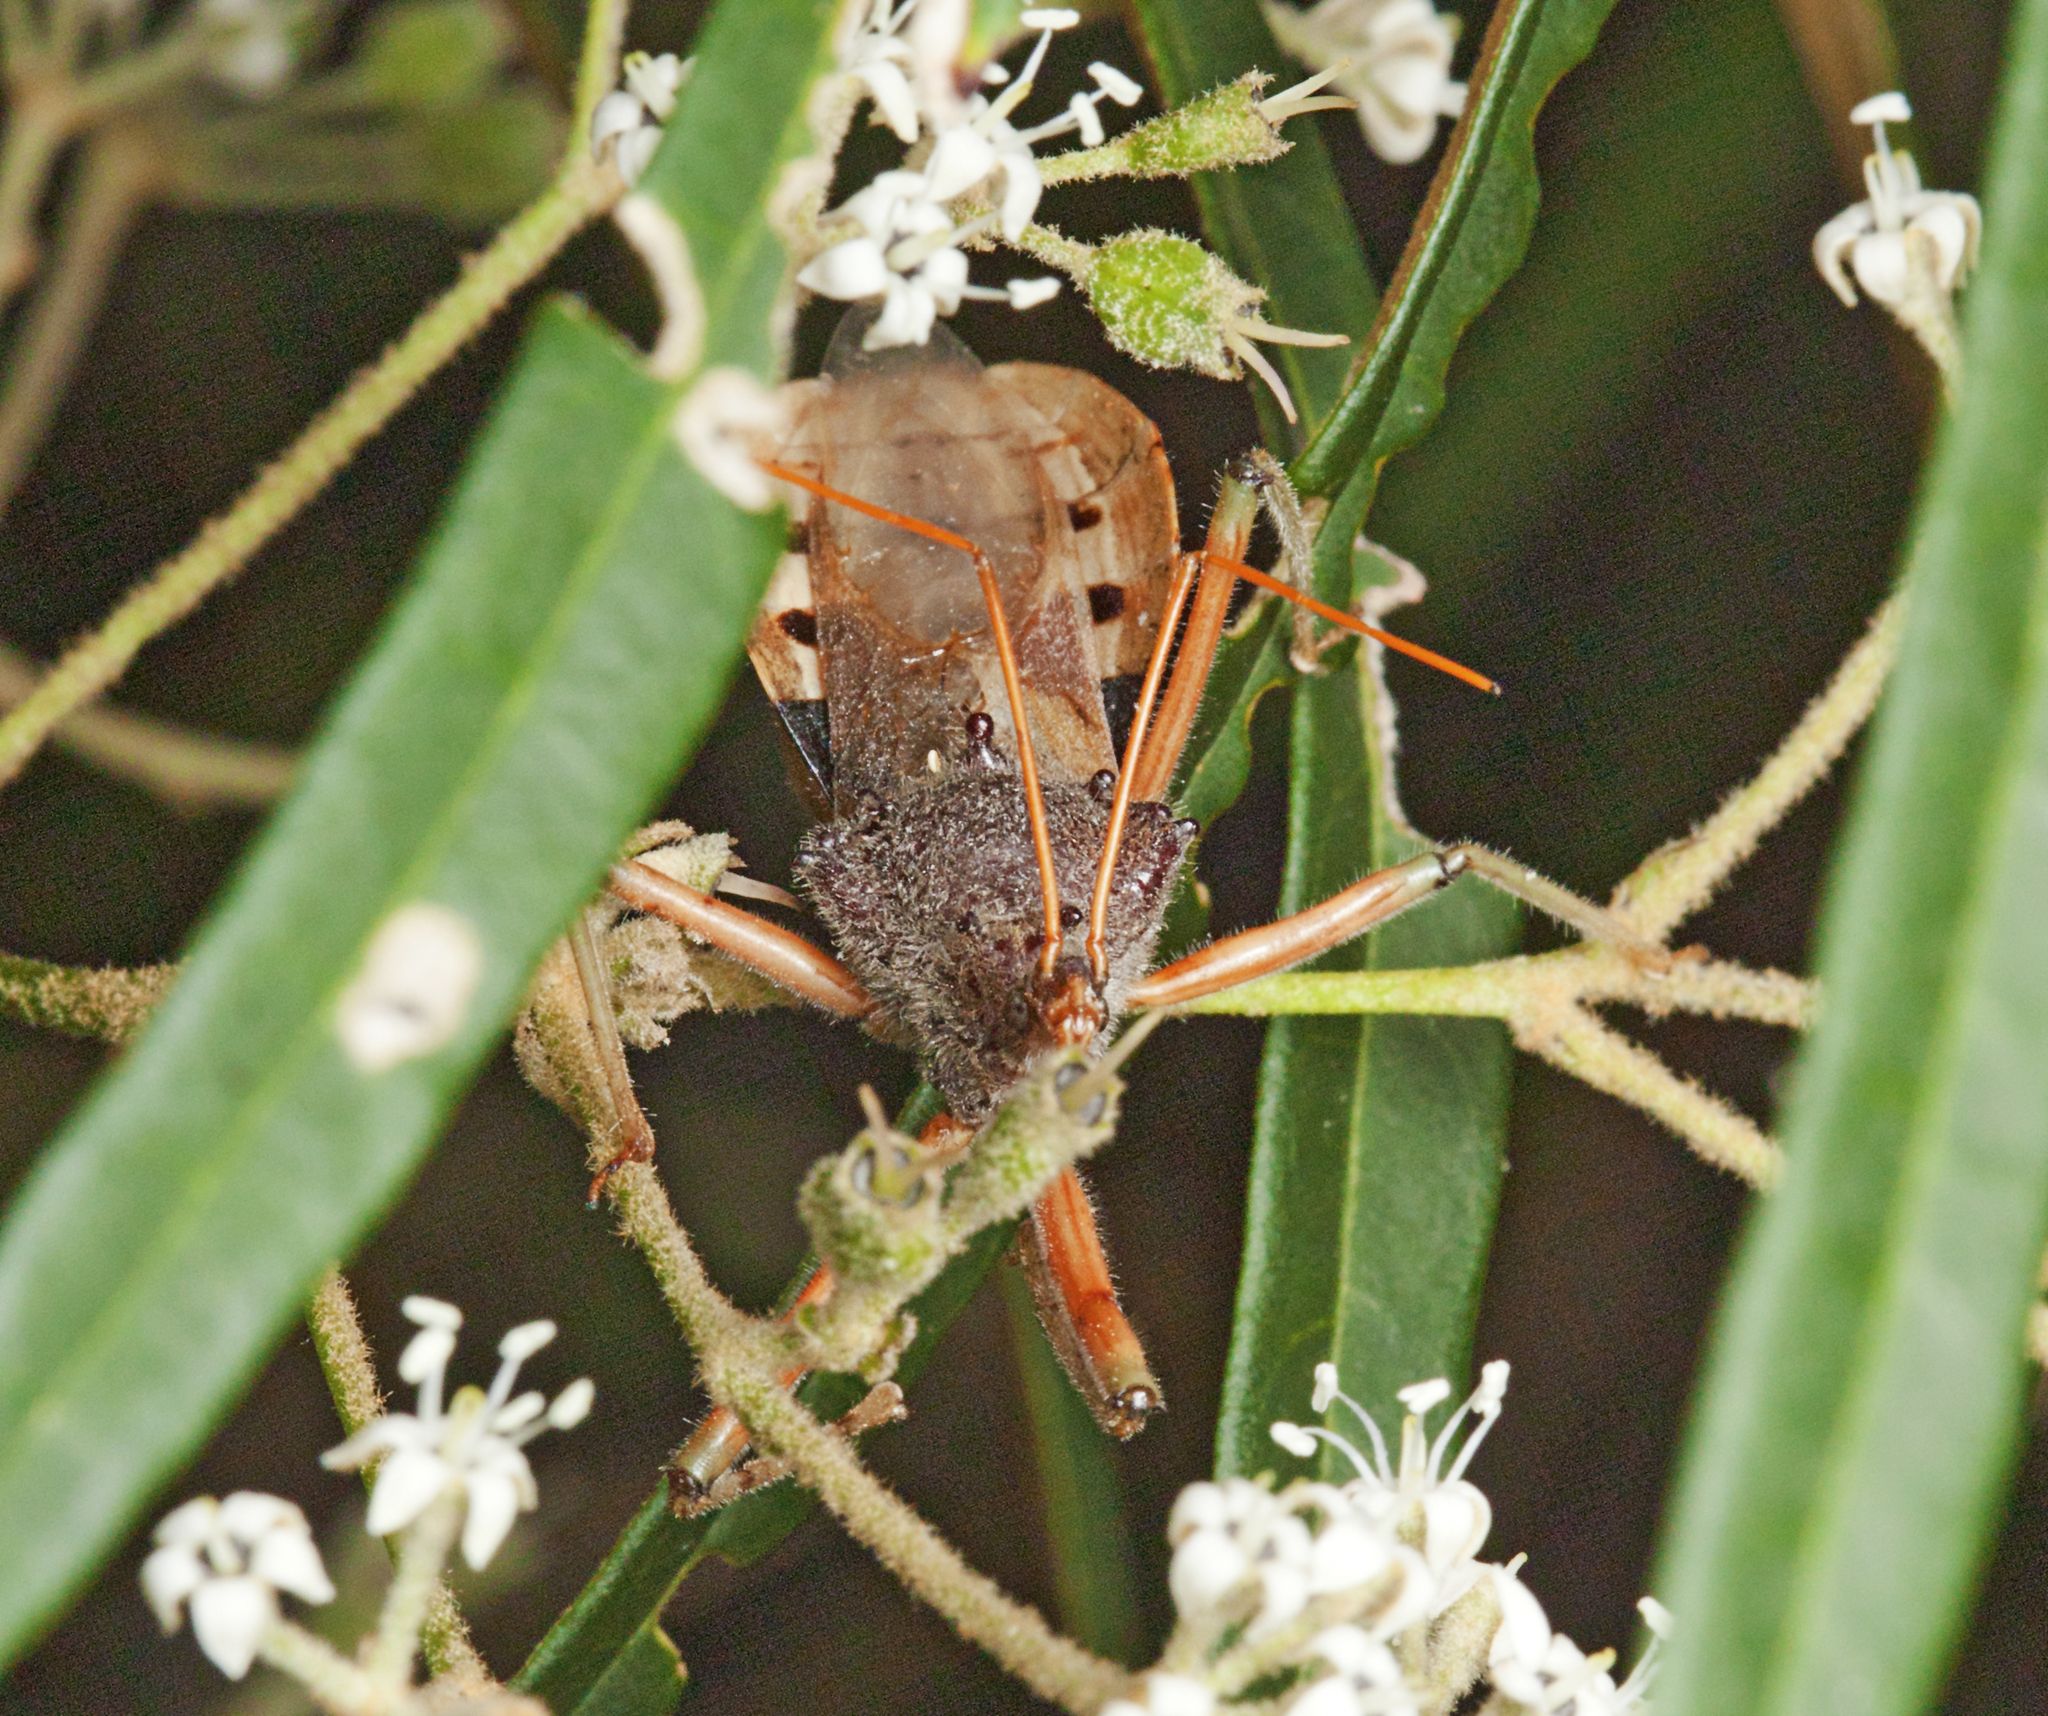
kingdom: Animalia
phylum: Arthropoda
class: Insecta
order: Hemiptera
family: Reduviidae
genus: Pristhesancus
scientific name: Pristhesancus plagipennis
